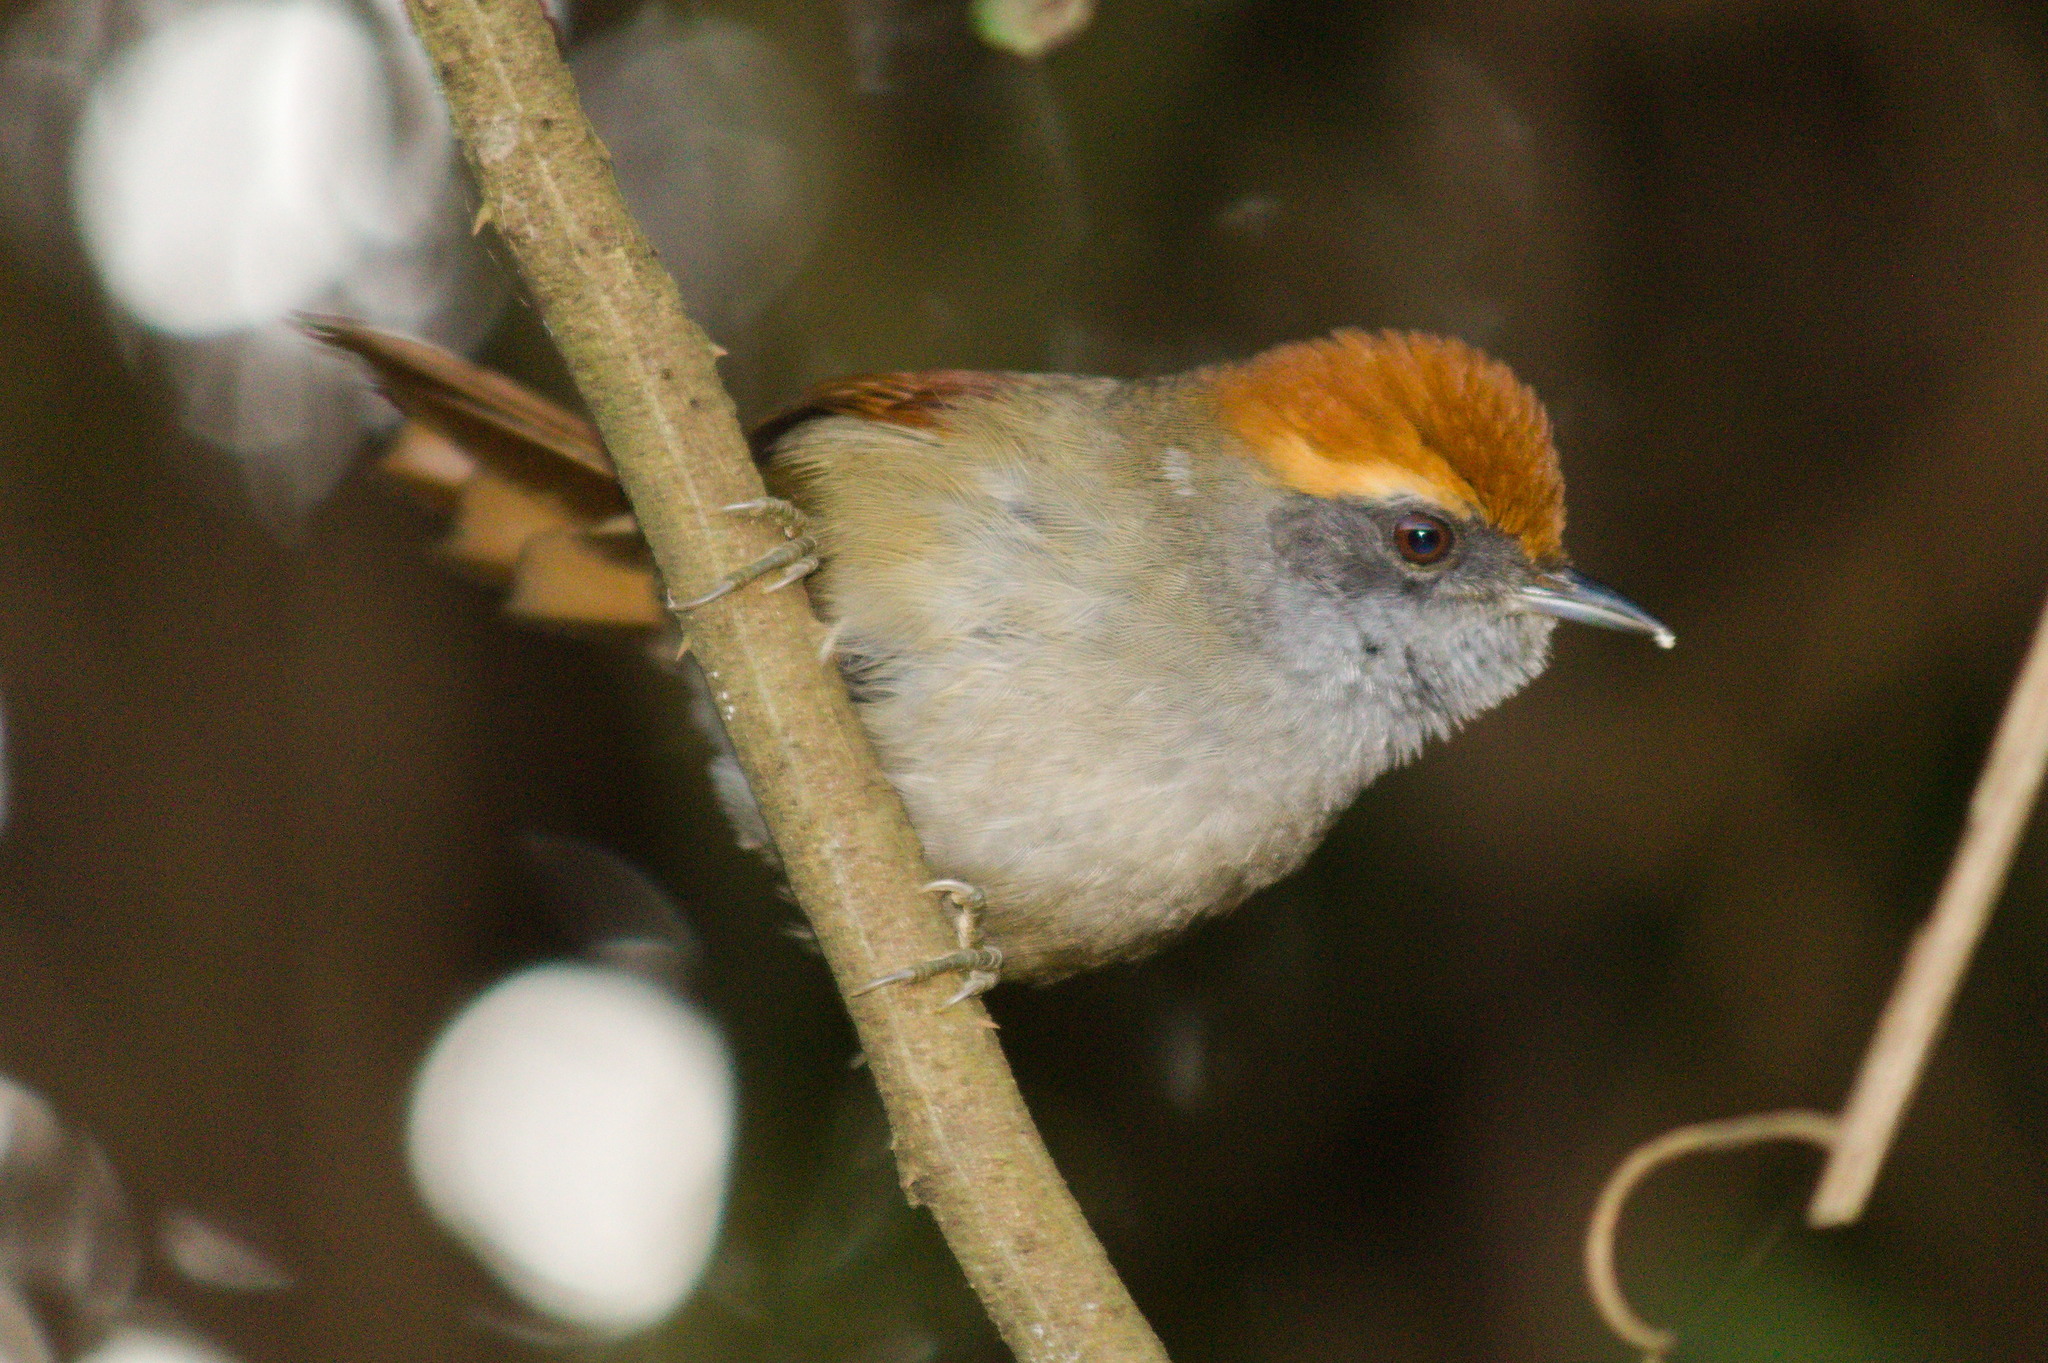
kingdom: Animalia
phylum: Chordata
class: Aves
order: Passeriformes
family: Furnariidae
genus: Synallaxis
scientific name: Synallaxis ruficapilla
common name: Rufous-capped spinetail
